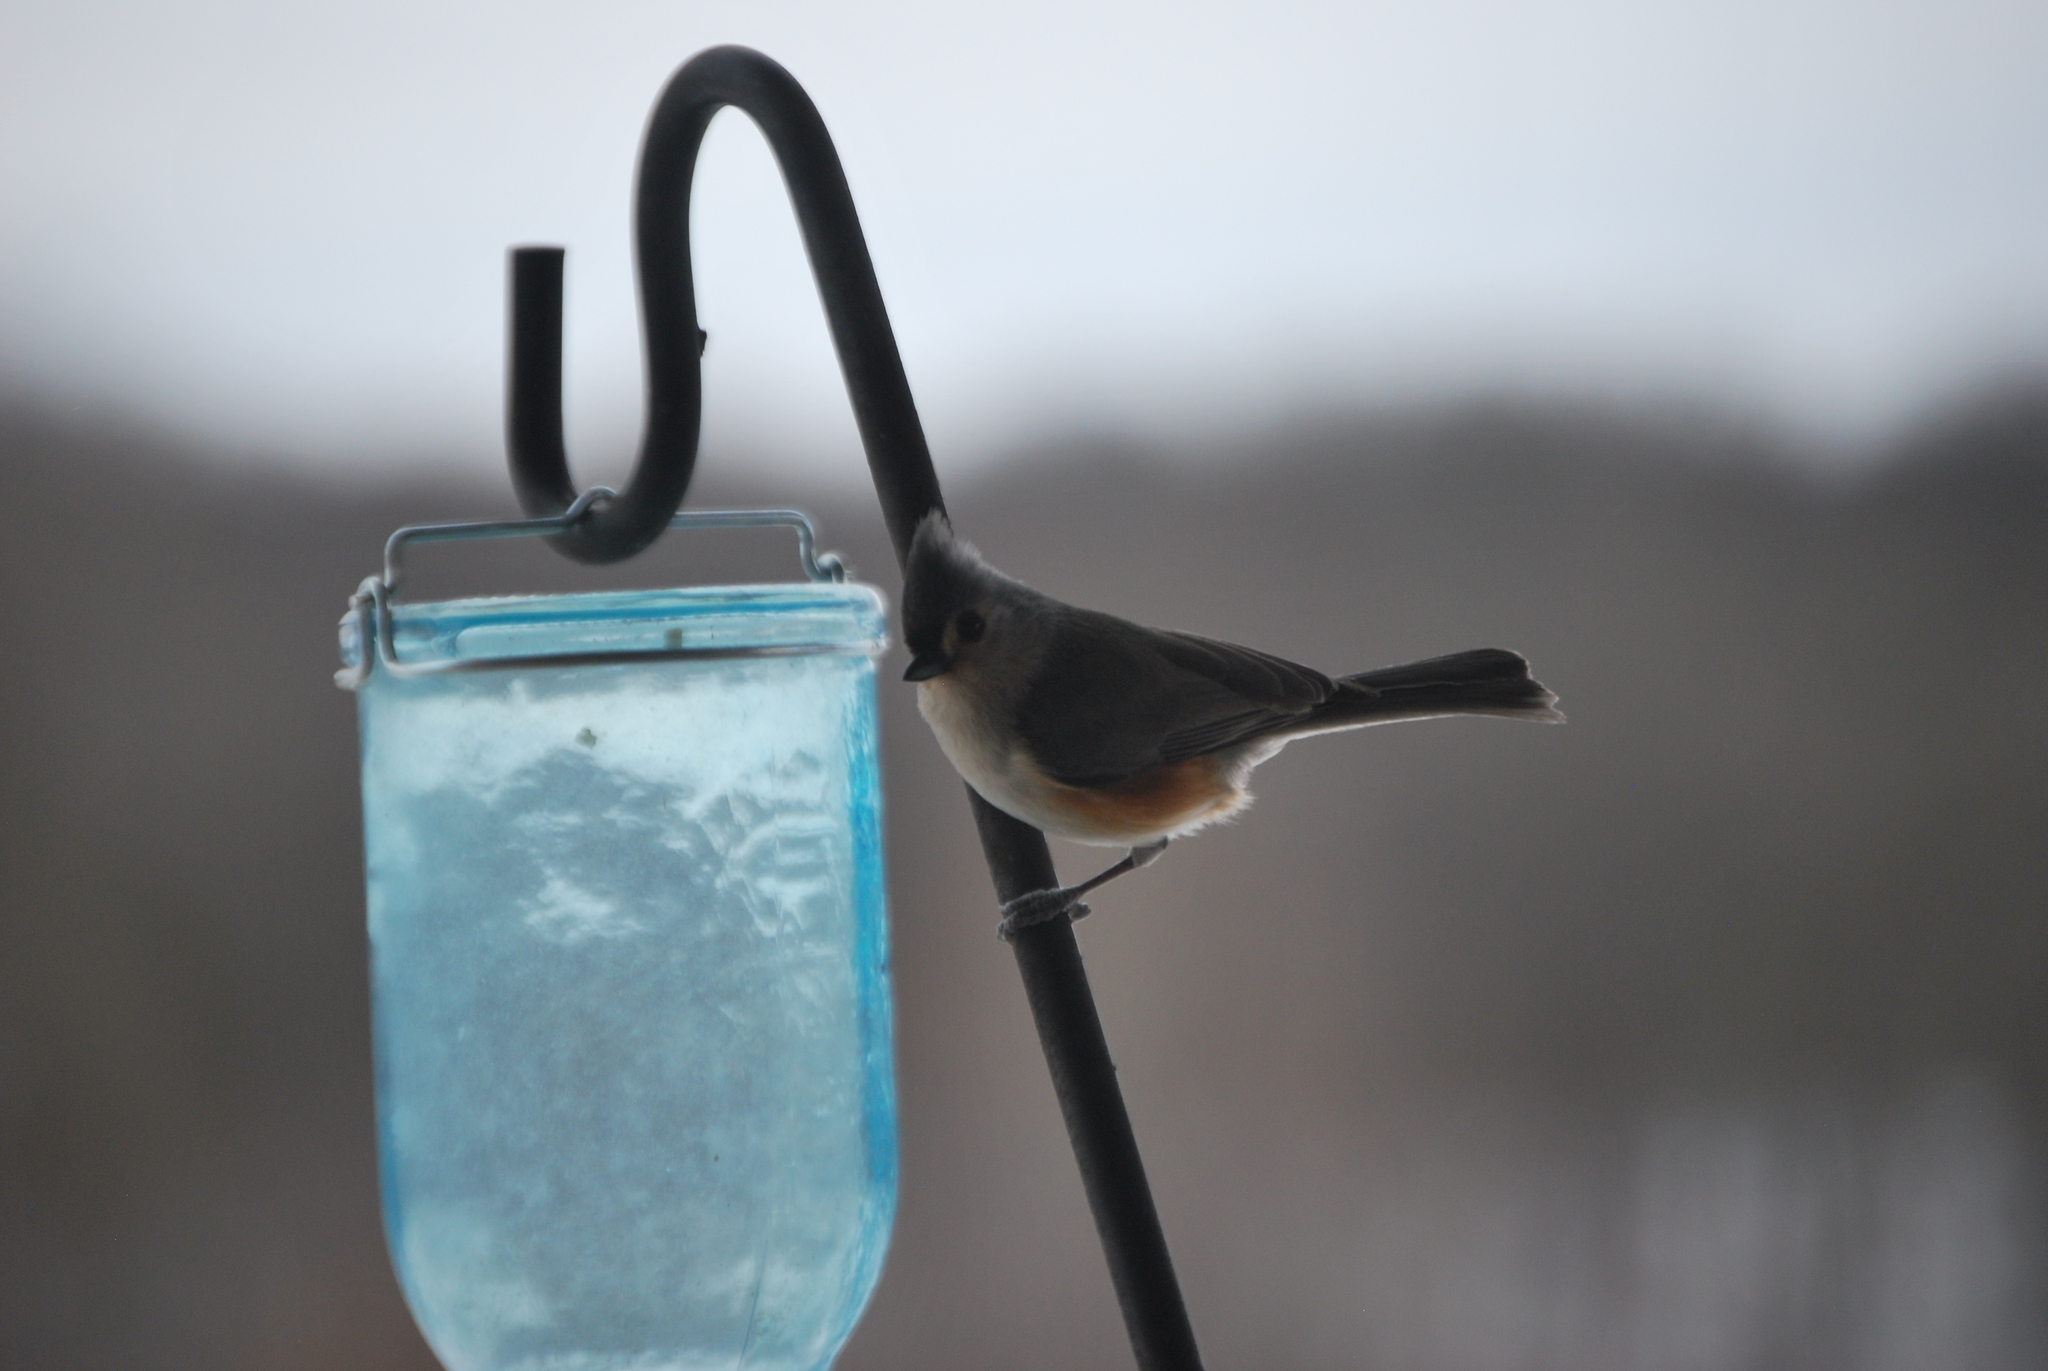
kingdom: Animalia
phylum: Chordata
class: Aves
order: Passeriformes
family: Paridae
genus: Baeolophus
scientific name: Baeolophus bicolor
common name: Tufted titmouse
